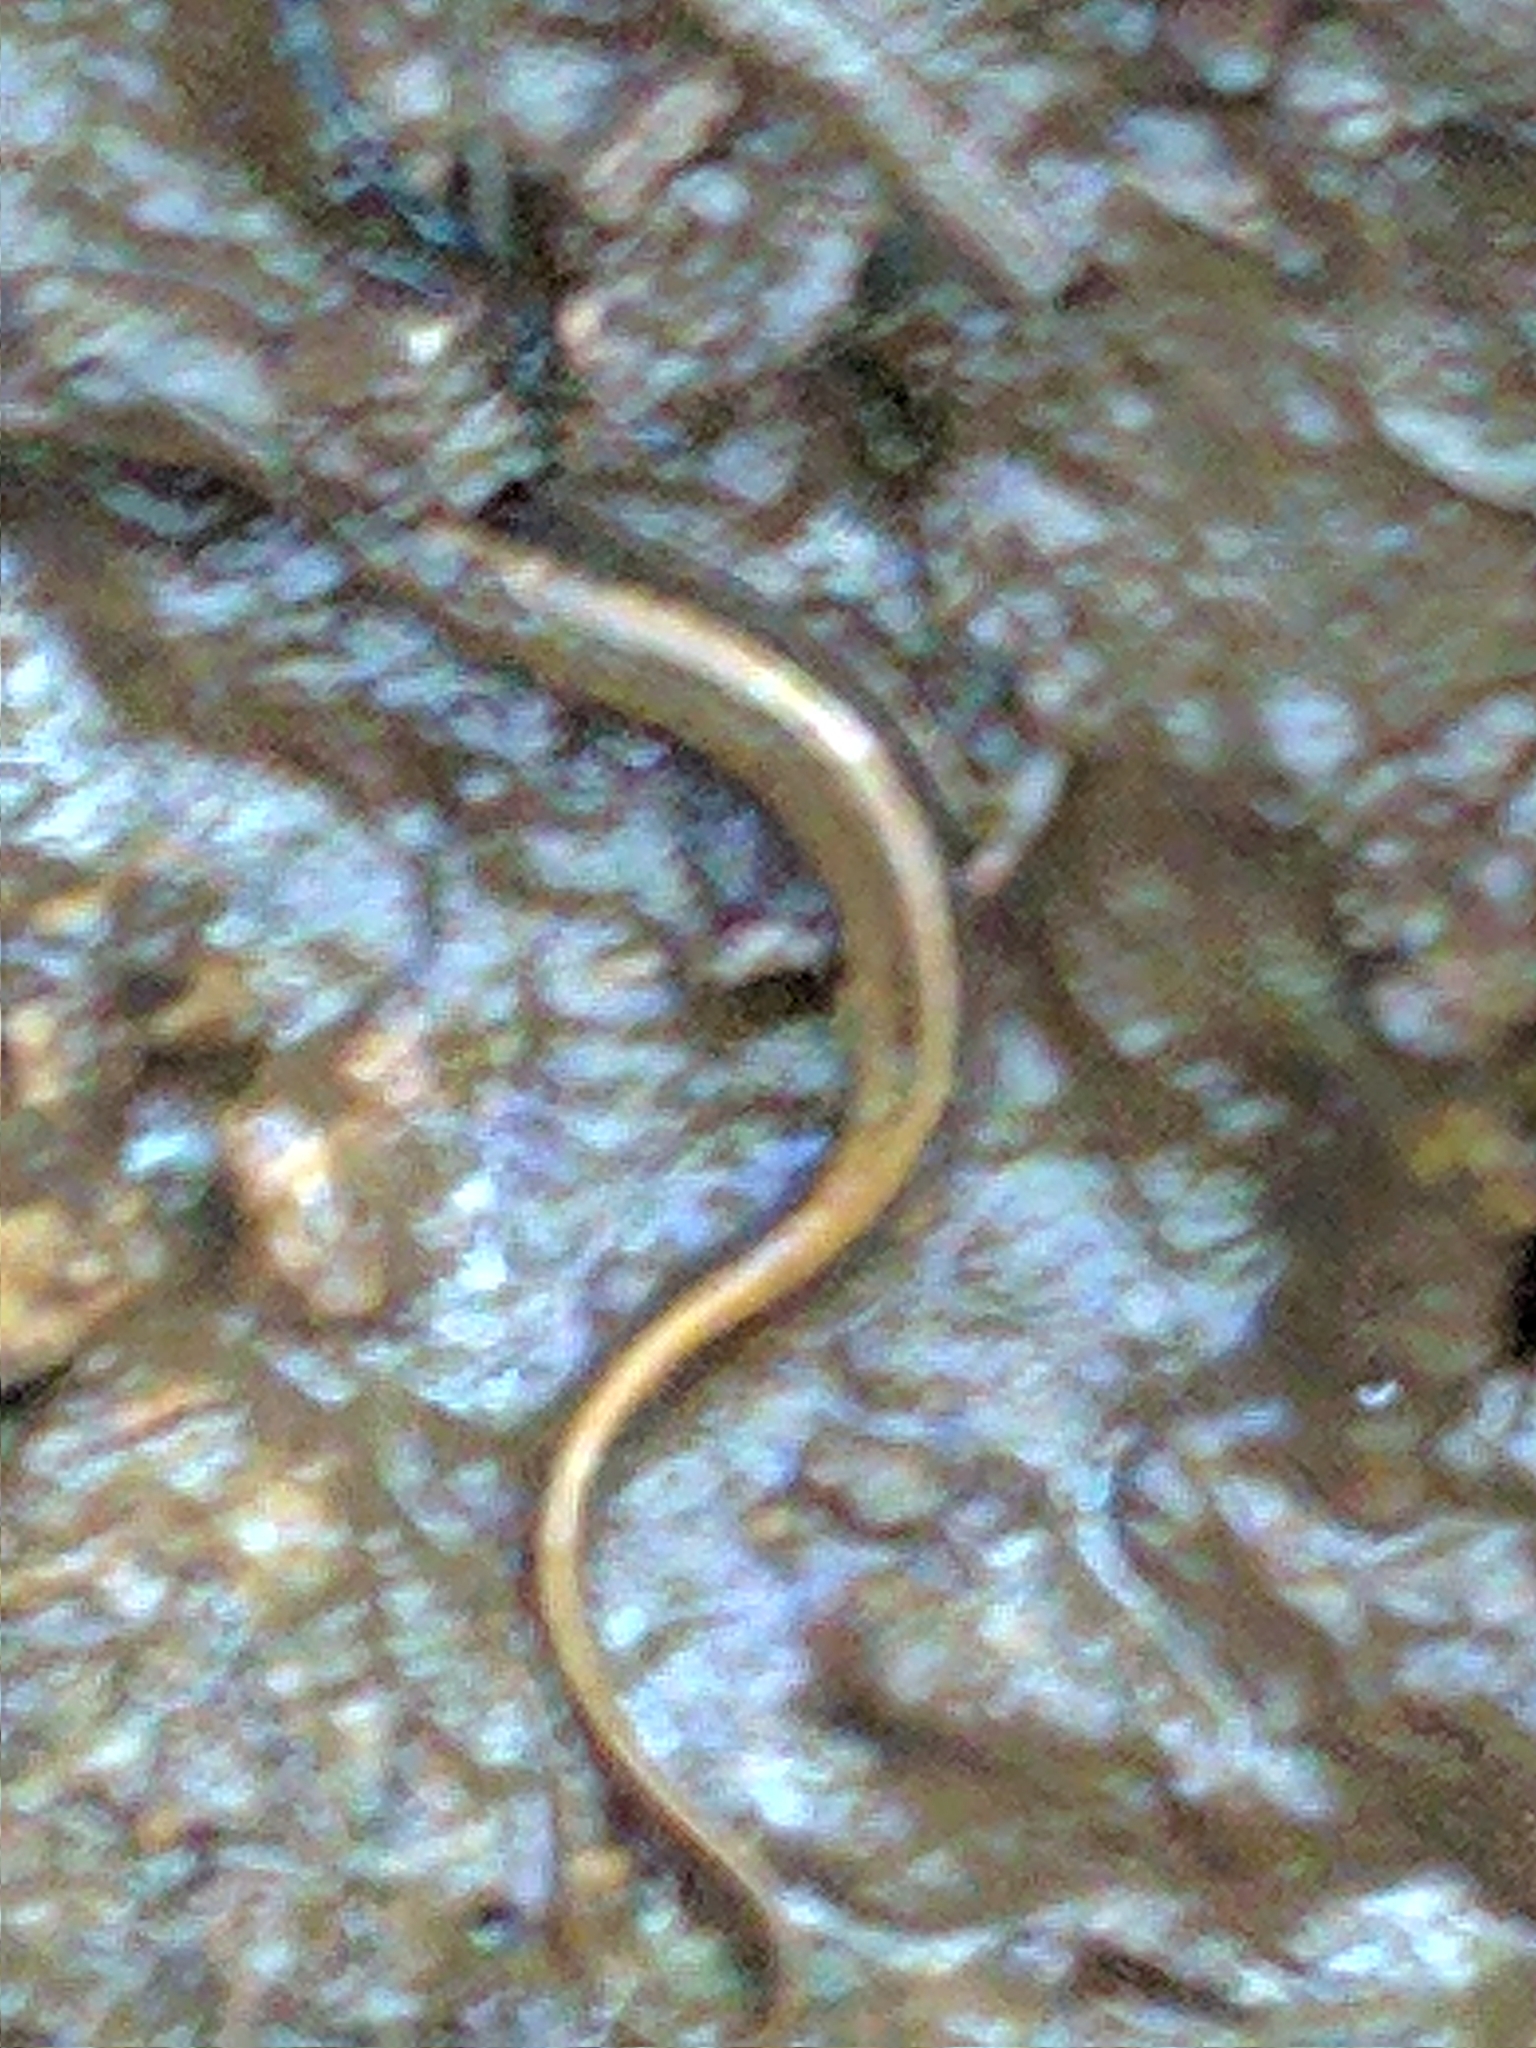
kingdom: Animalia
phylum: Chordata
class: Amphibia
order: Caudata
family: Plethodontidae
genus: Eurycea
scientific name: Eurycea bislineata
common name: Northern two-lined salamander
